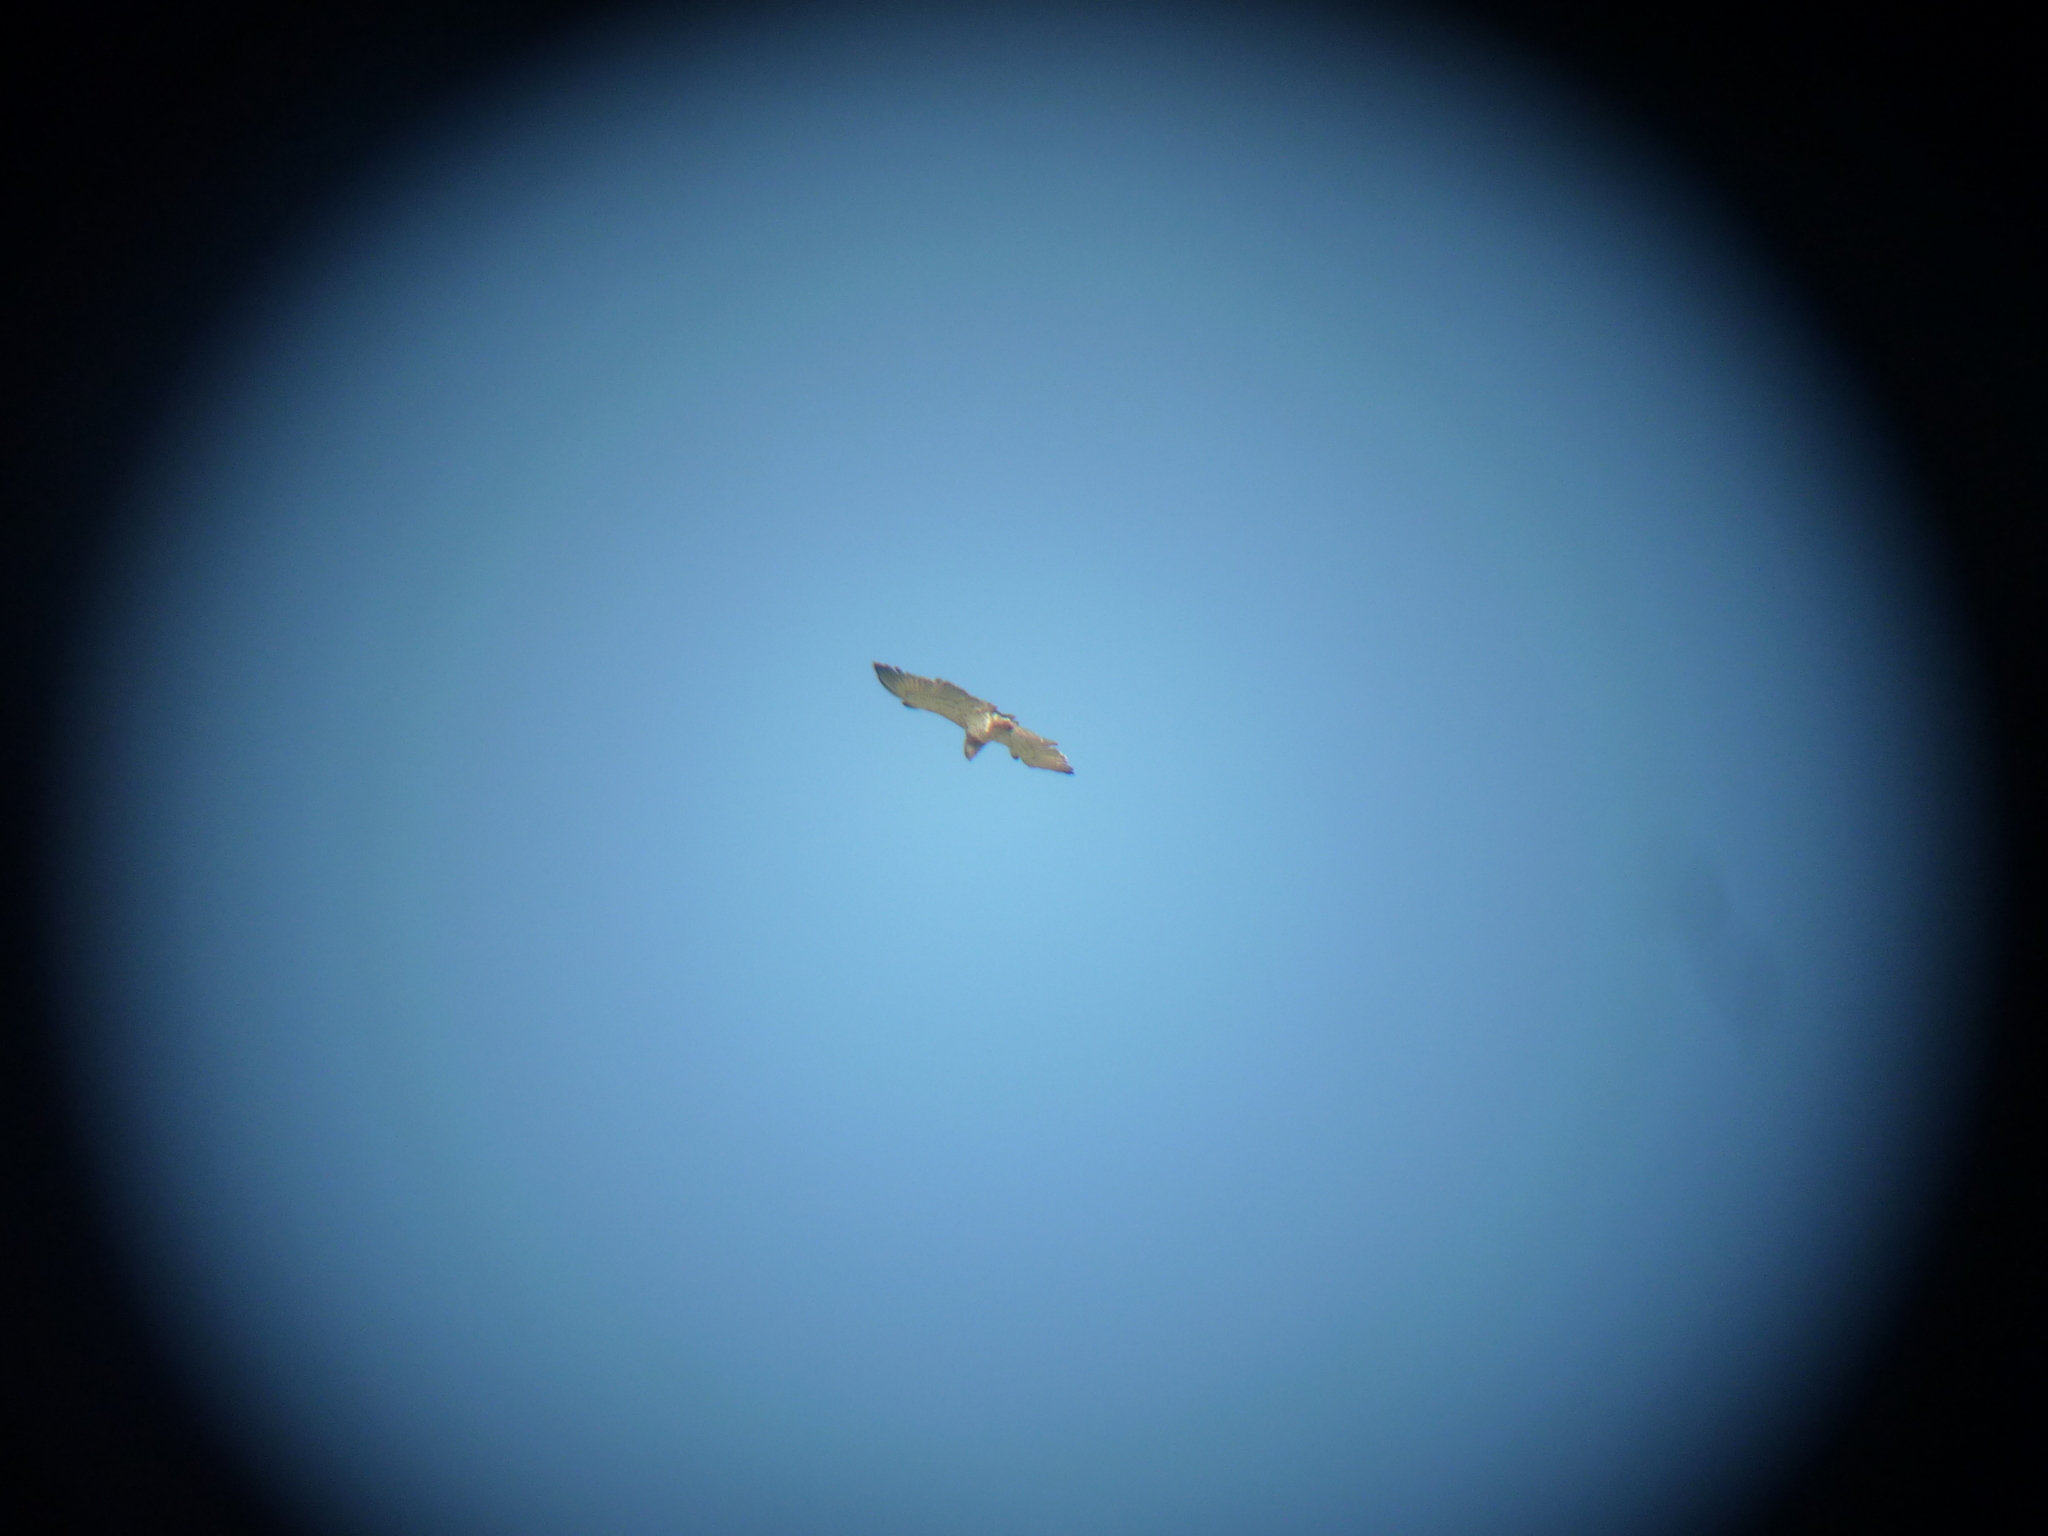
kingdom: Animalia
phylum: Chordata
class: Aves
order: Accipitriformes
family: Accipitridae
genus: Circaetus
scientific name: Circaetus gallicus
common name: Short-toed snake eagle
